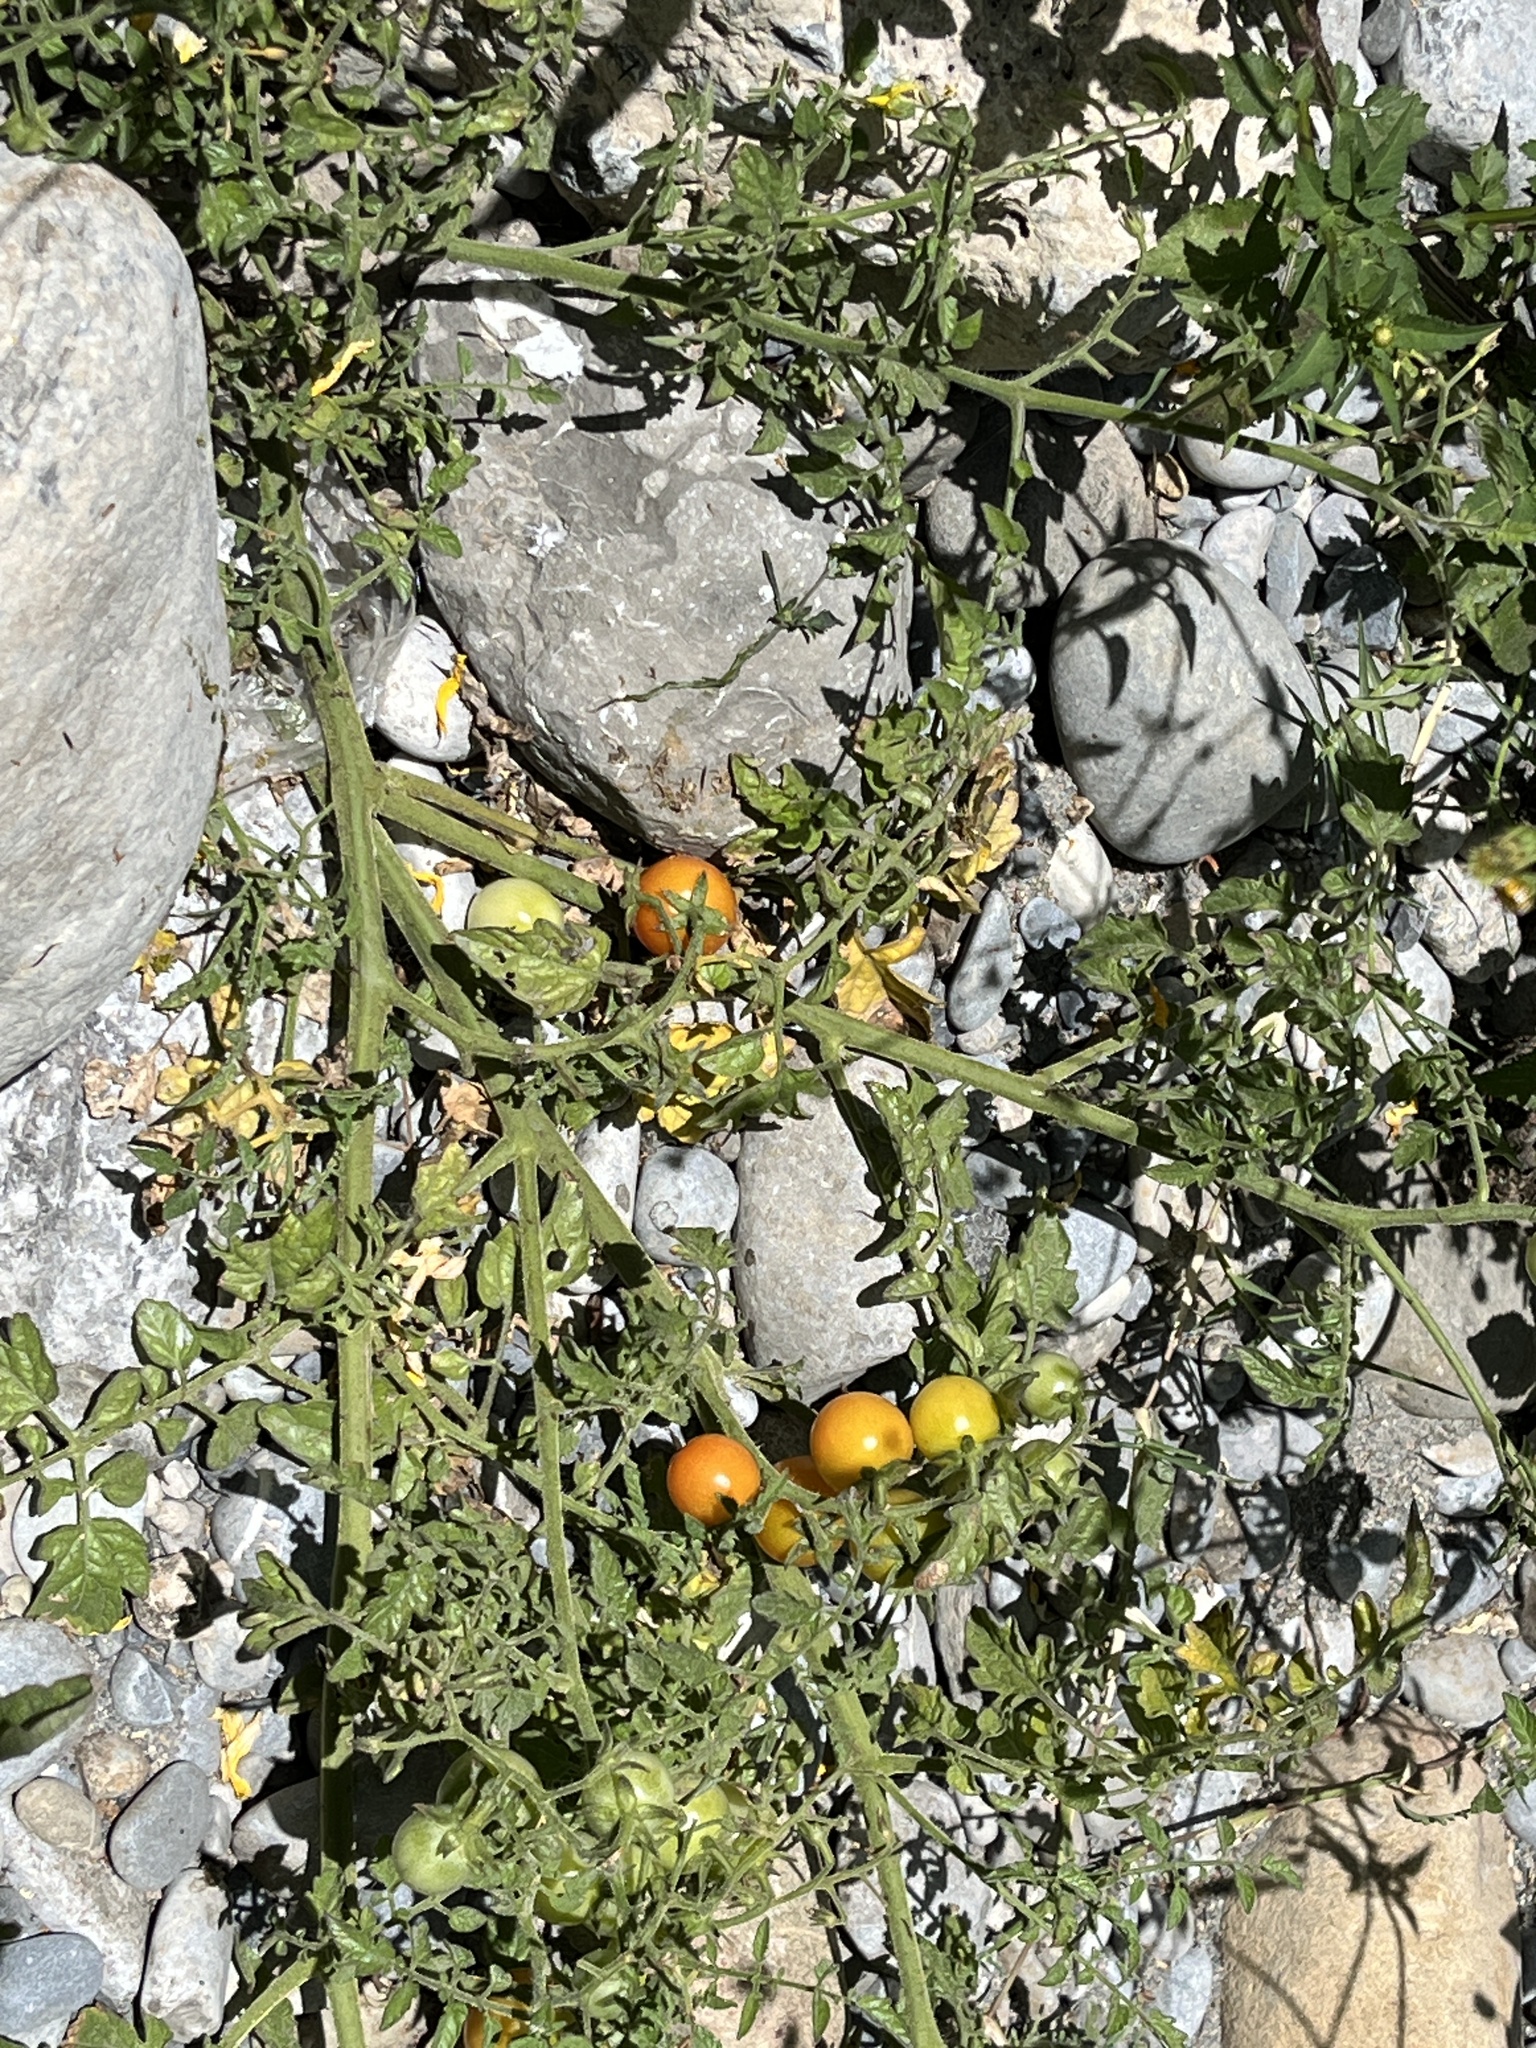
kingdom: Plantae
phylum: Tracheophyta
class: Magnoliopsida
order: Solanales
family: Solanaceae
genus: Solanum
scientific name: Solanum lycopersicum
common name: Garden tomato
